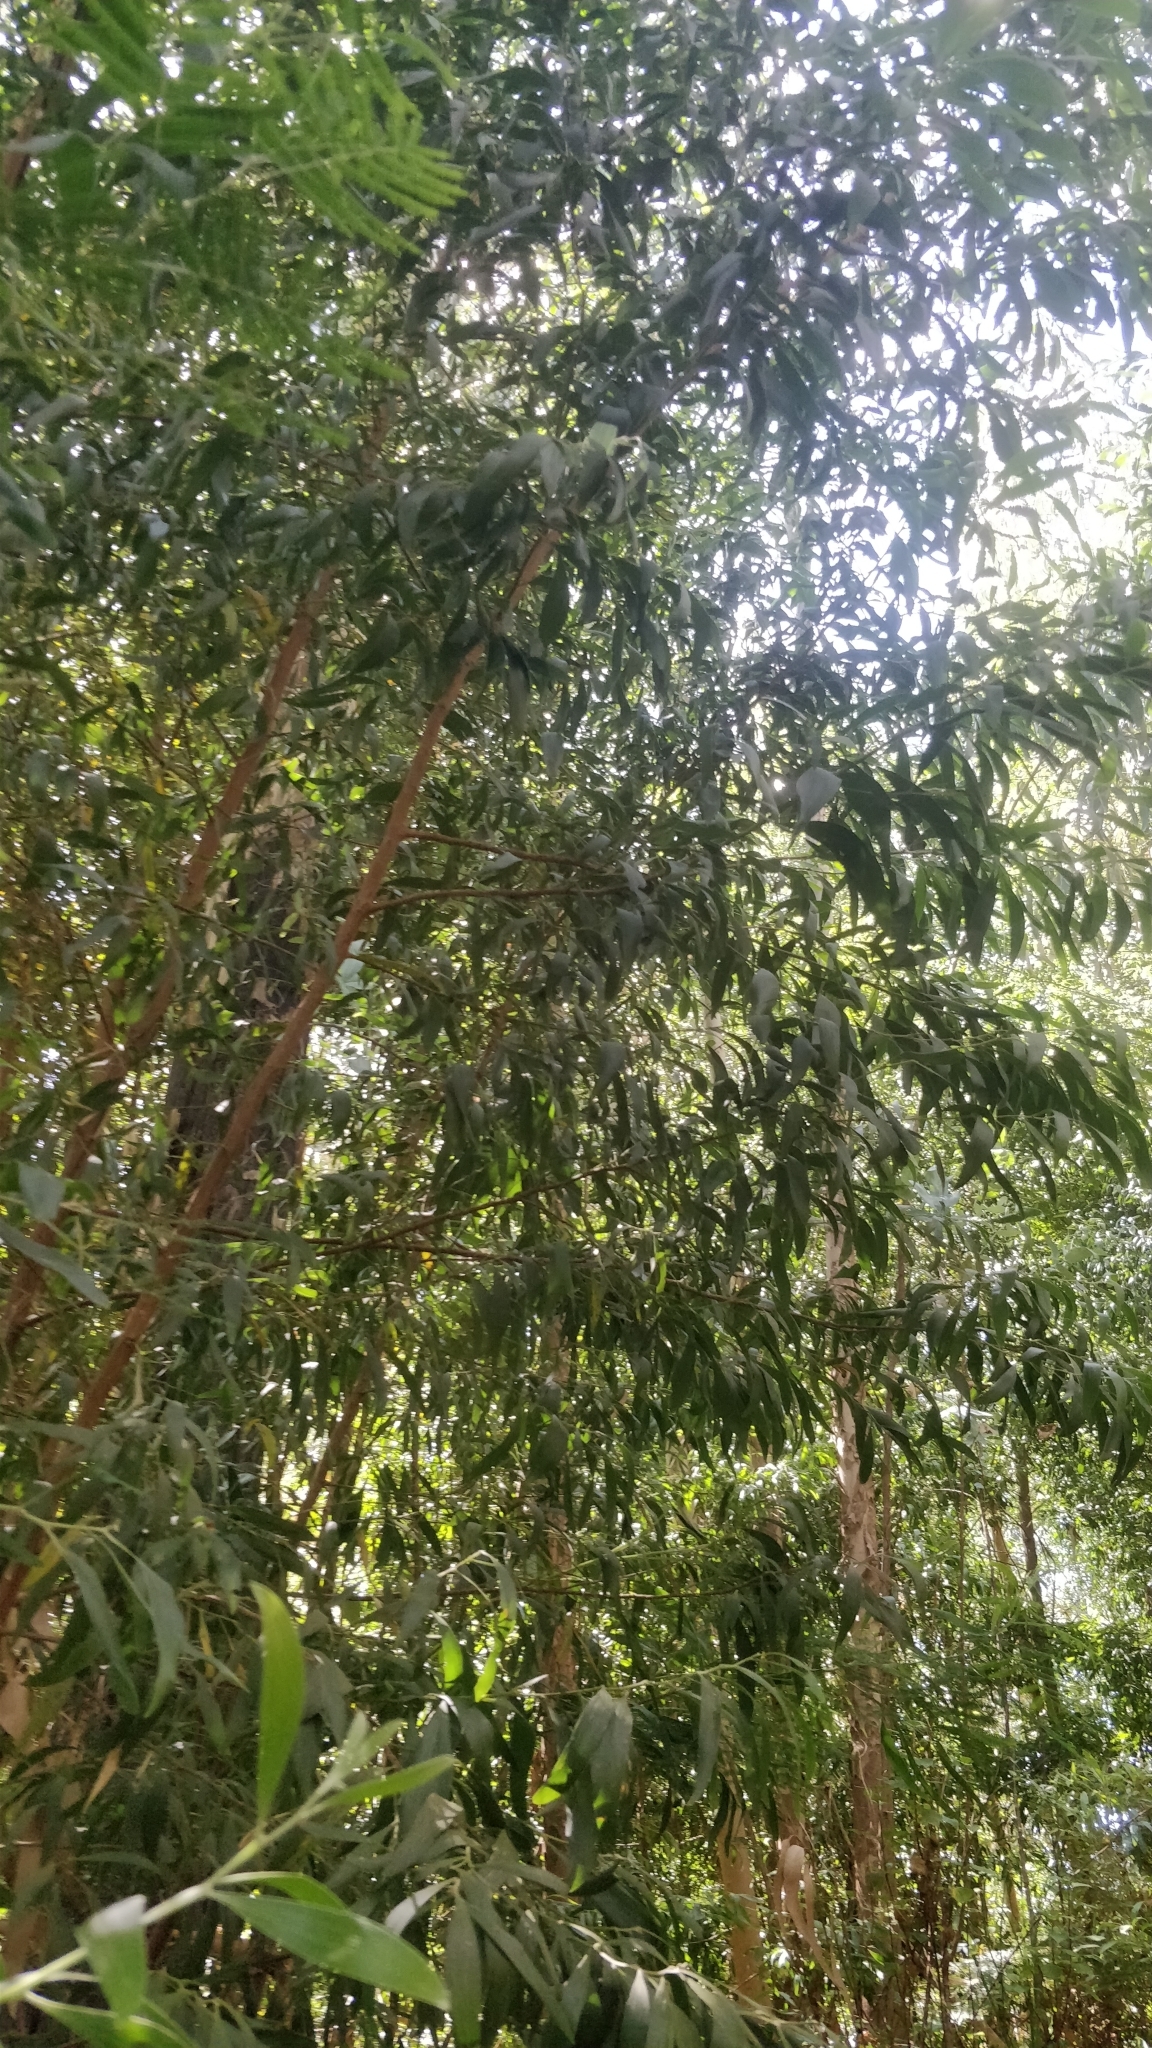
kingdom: Plantae
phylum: Tracheophyta
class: Magnoliopsida
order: Fabales
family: Fabaceae
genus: Acacia
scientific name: Acacia melanoxylon
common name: Blackwood
